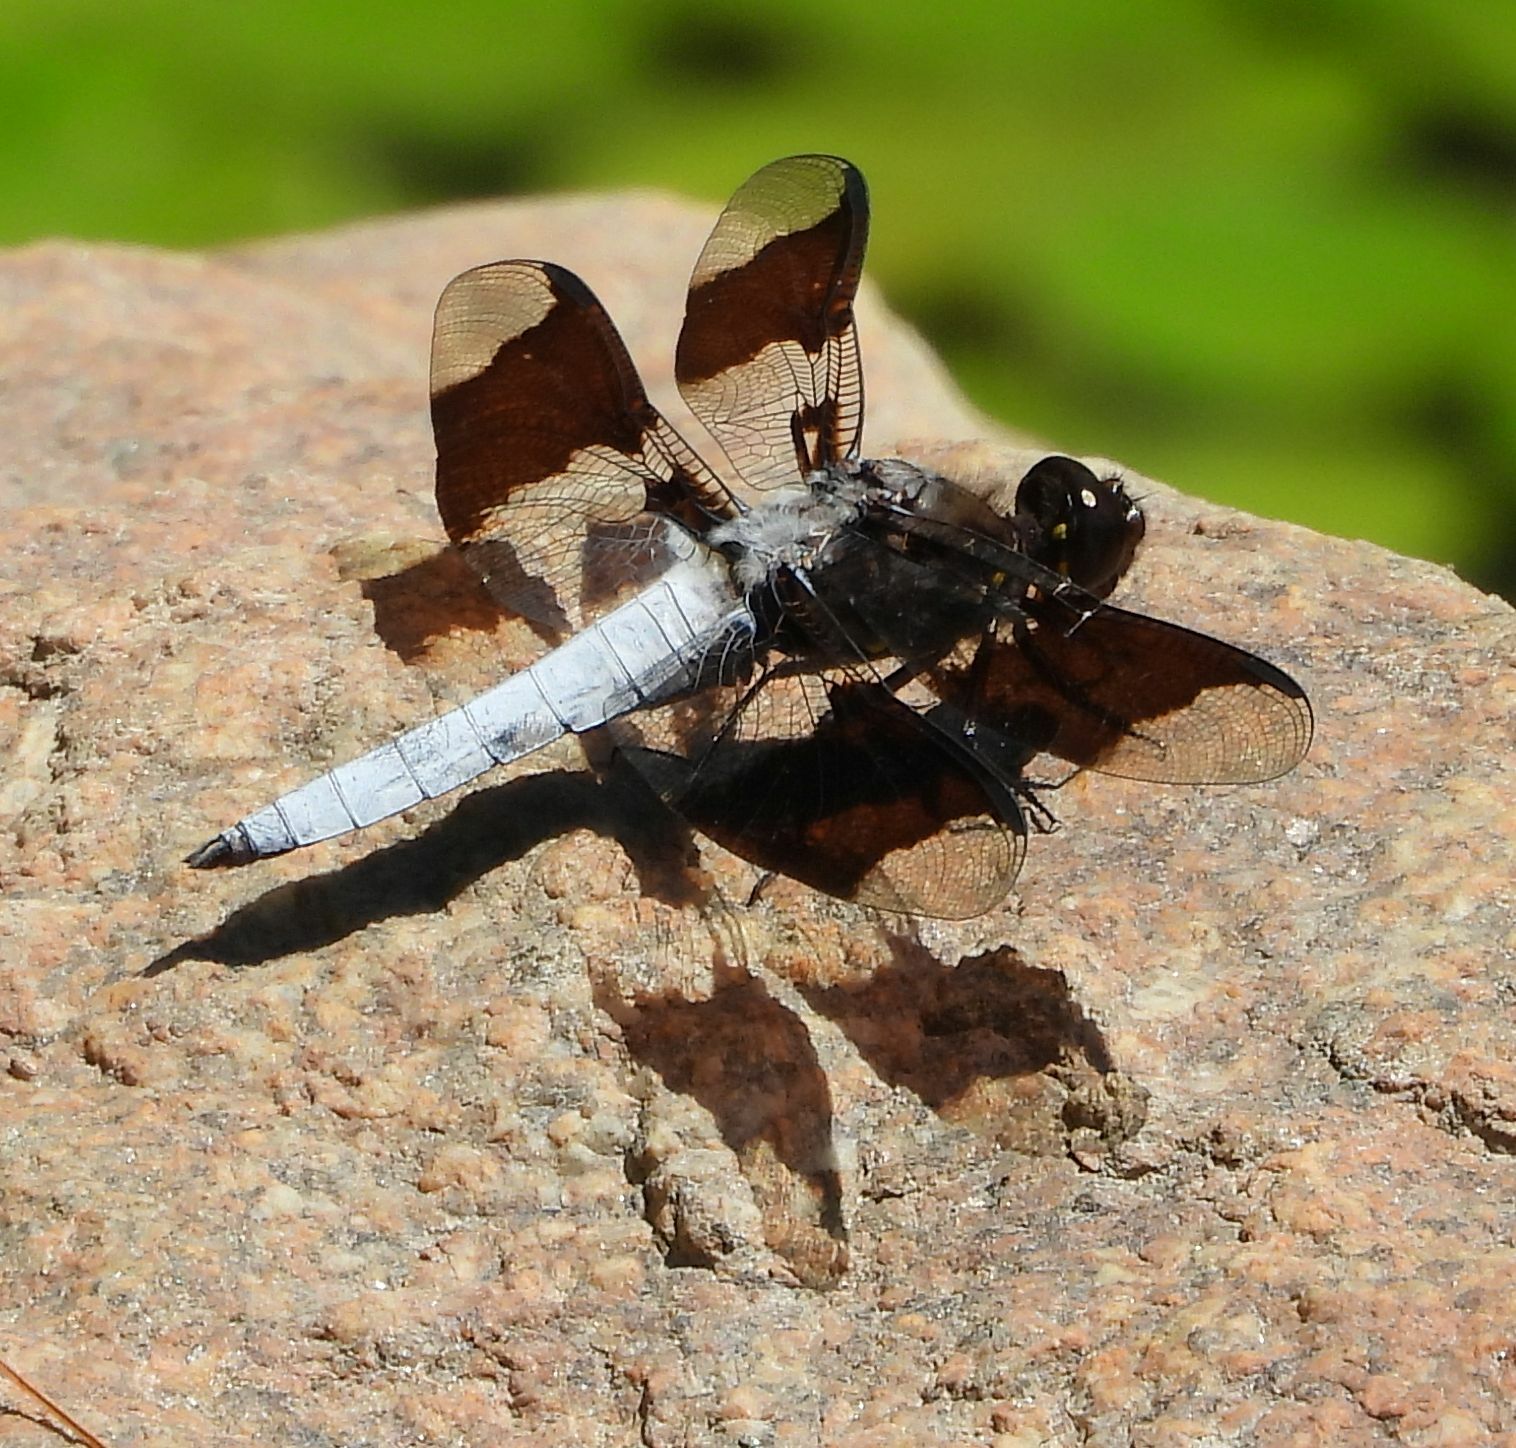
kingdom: Animalia
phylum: Arthropoda
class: Insecta
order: Odonata
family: Libellulidae
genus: Plathemis
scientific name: Plathemis lydia
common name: Common whitetail
